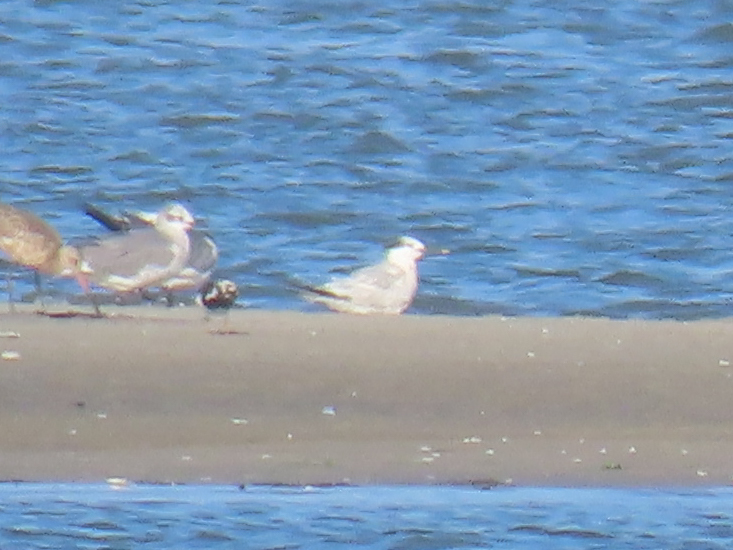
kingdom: Animalia
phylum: Chordata
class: Aves
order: Charadriiformes
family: Laridae
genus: Thalasseus
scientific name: Thalasseus sandvicensis
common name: Sandwich tern
